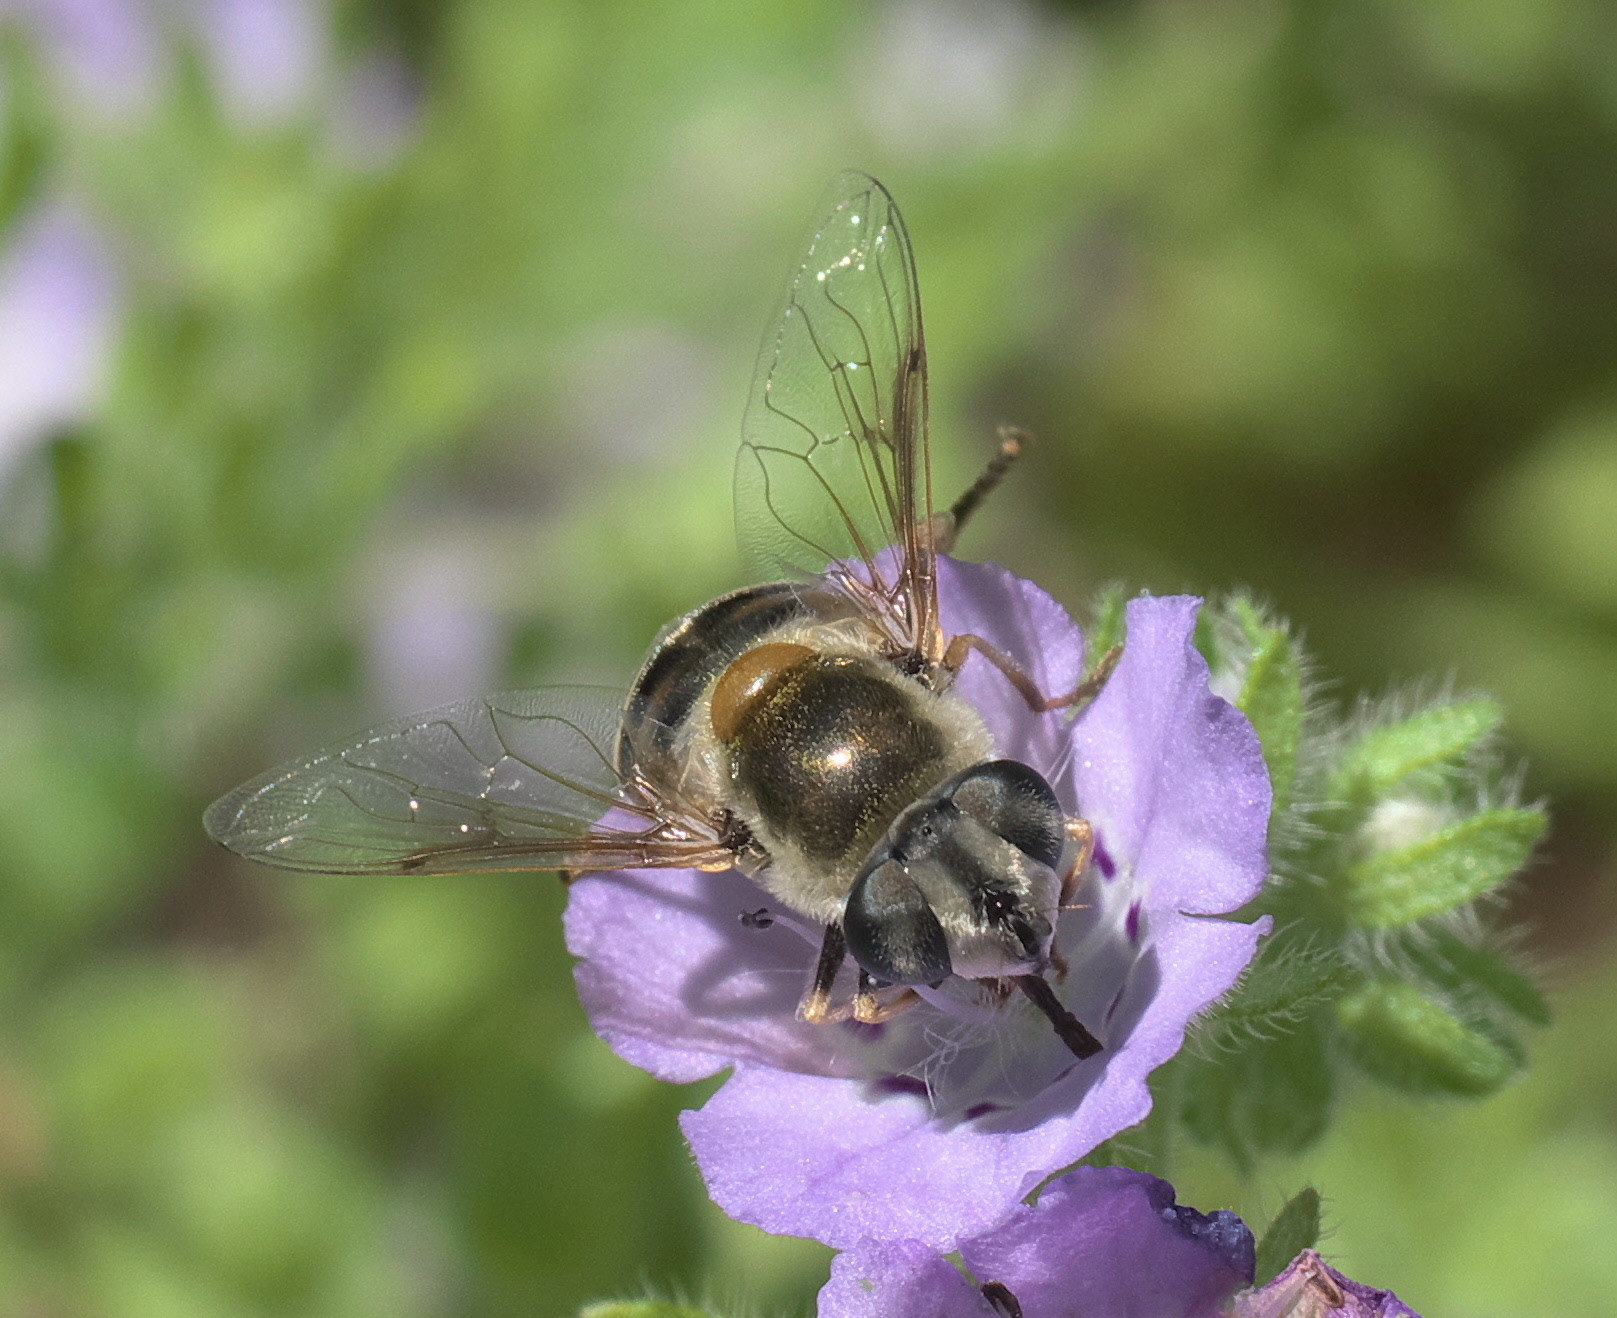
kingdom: Animalia
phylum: Arthropoda
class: Insecta
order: Diptera
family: Syrphidae
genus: Eristalis
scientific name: Eristalis stipator
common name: Yellow-shouldered drone fly
